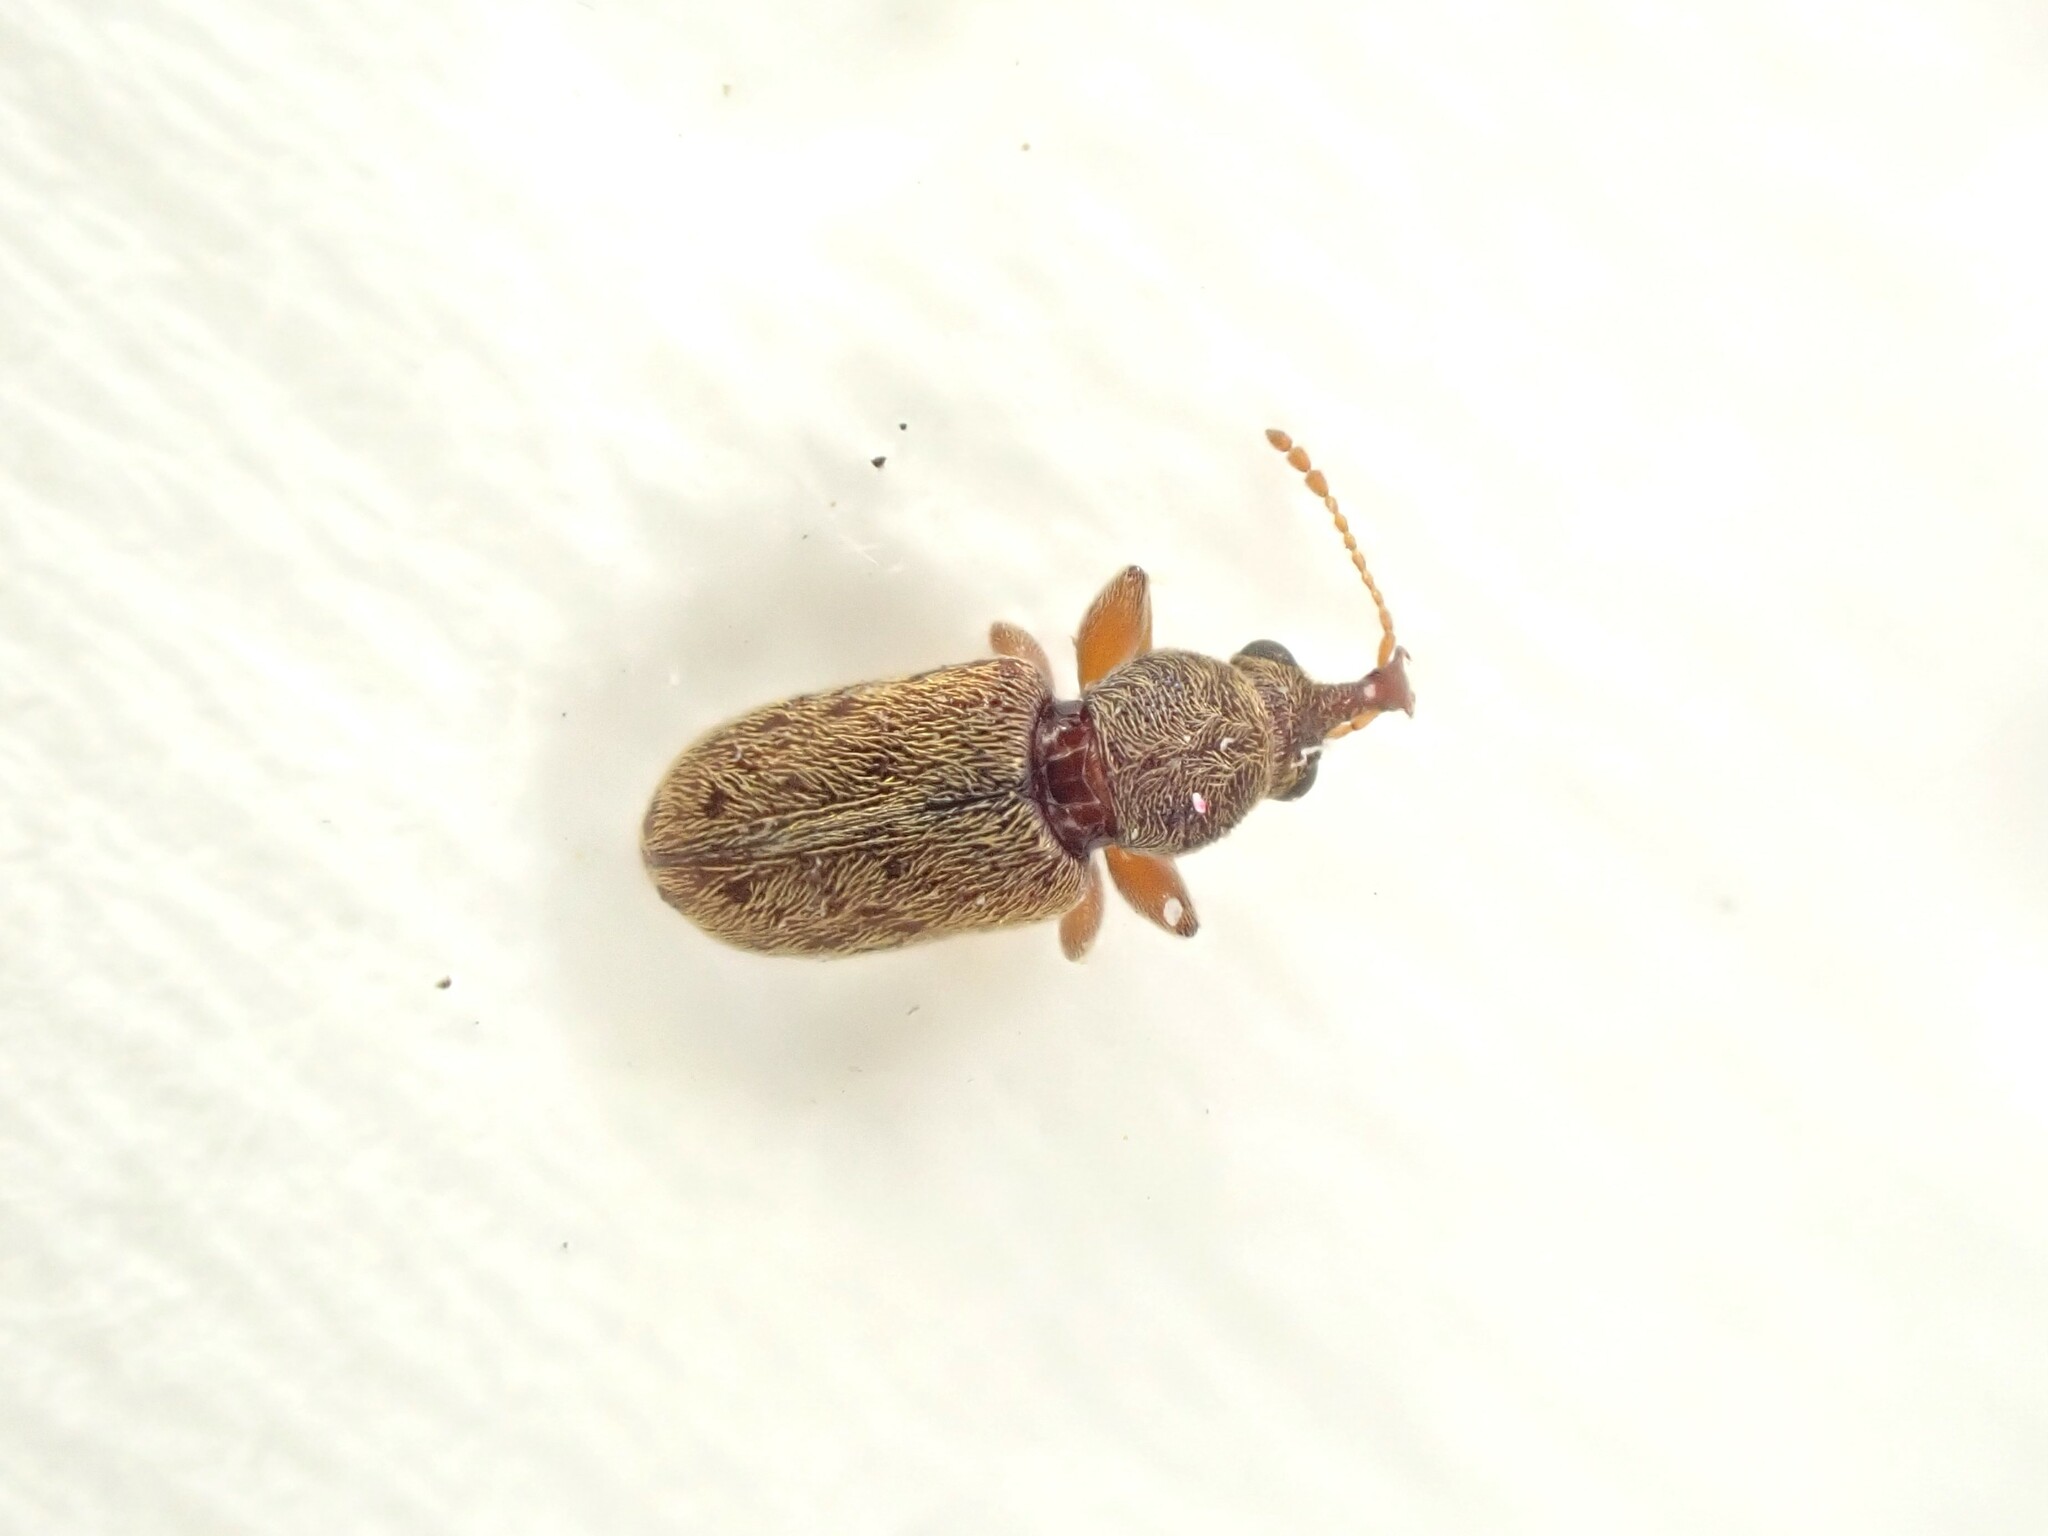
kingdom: Animalia
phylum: Arthropoda
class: Insecta
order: Coleoptera
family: Nemonychidae
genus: Rhinorhynchus
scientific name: Rhinorhynchus rufulus
